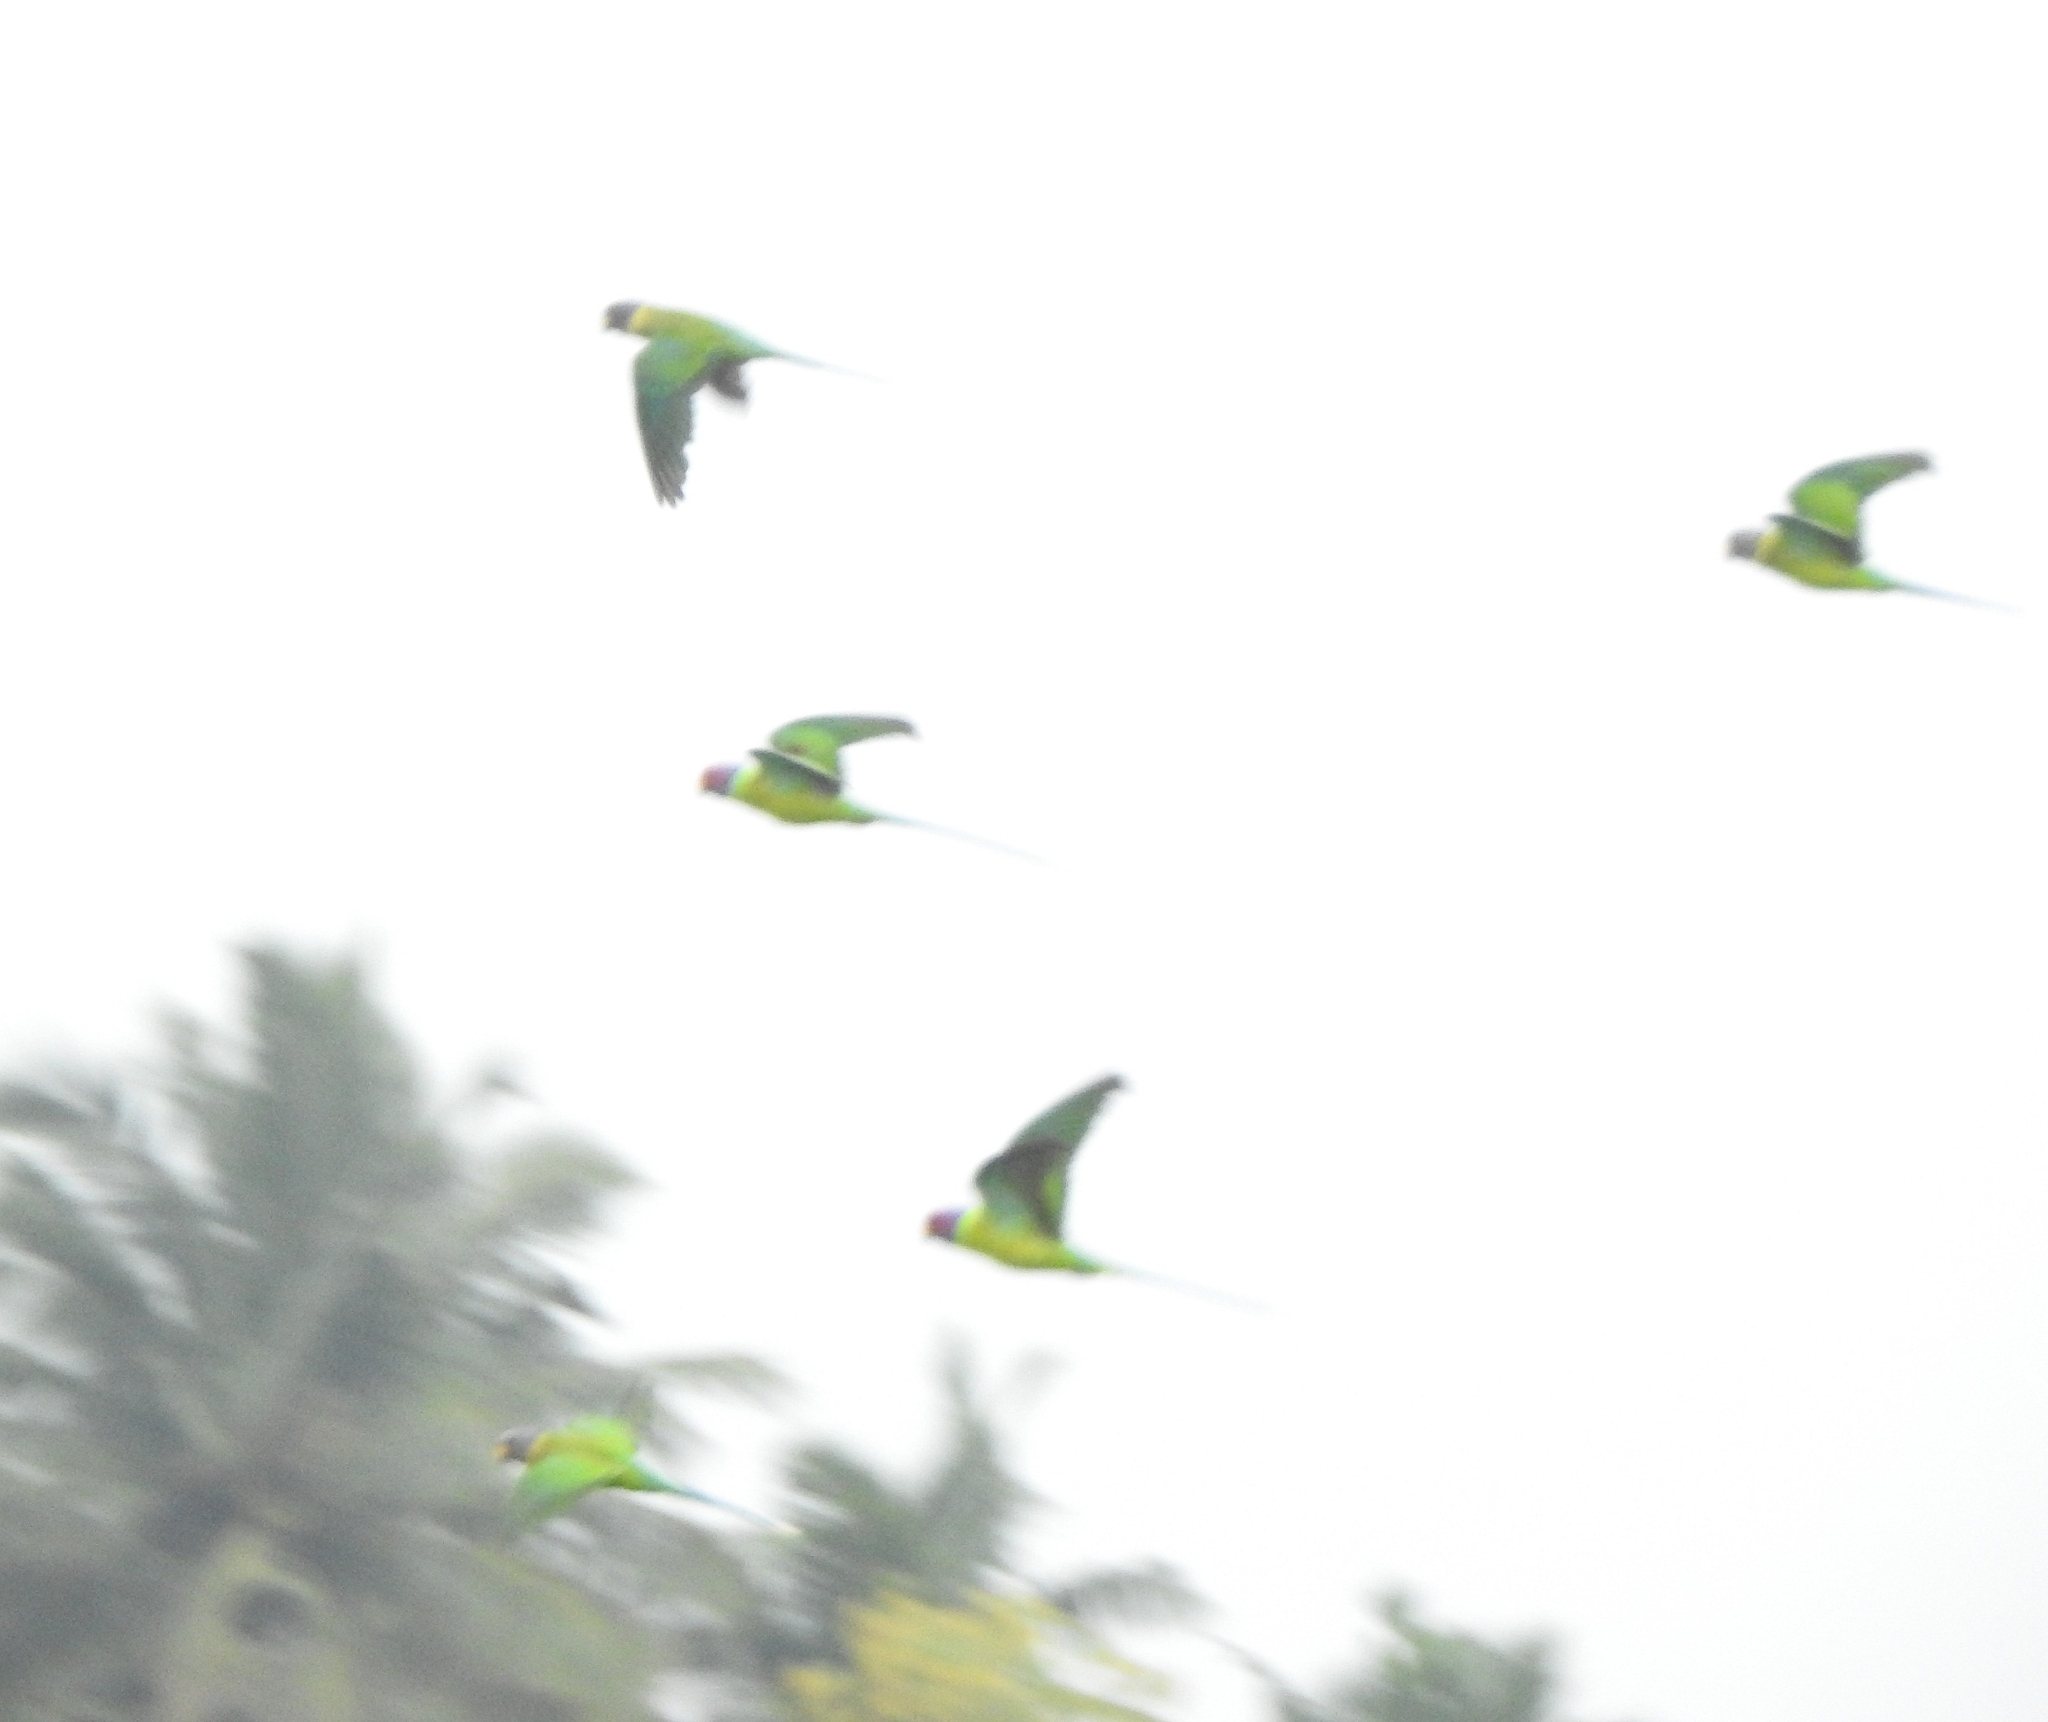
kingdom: Animalia
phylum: Chordata
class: Aves
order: Psittaciformes
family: Psittacidae
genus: Psittacula
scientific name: Psittacula cyanocephala
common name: Plum-headed parakeet
